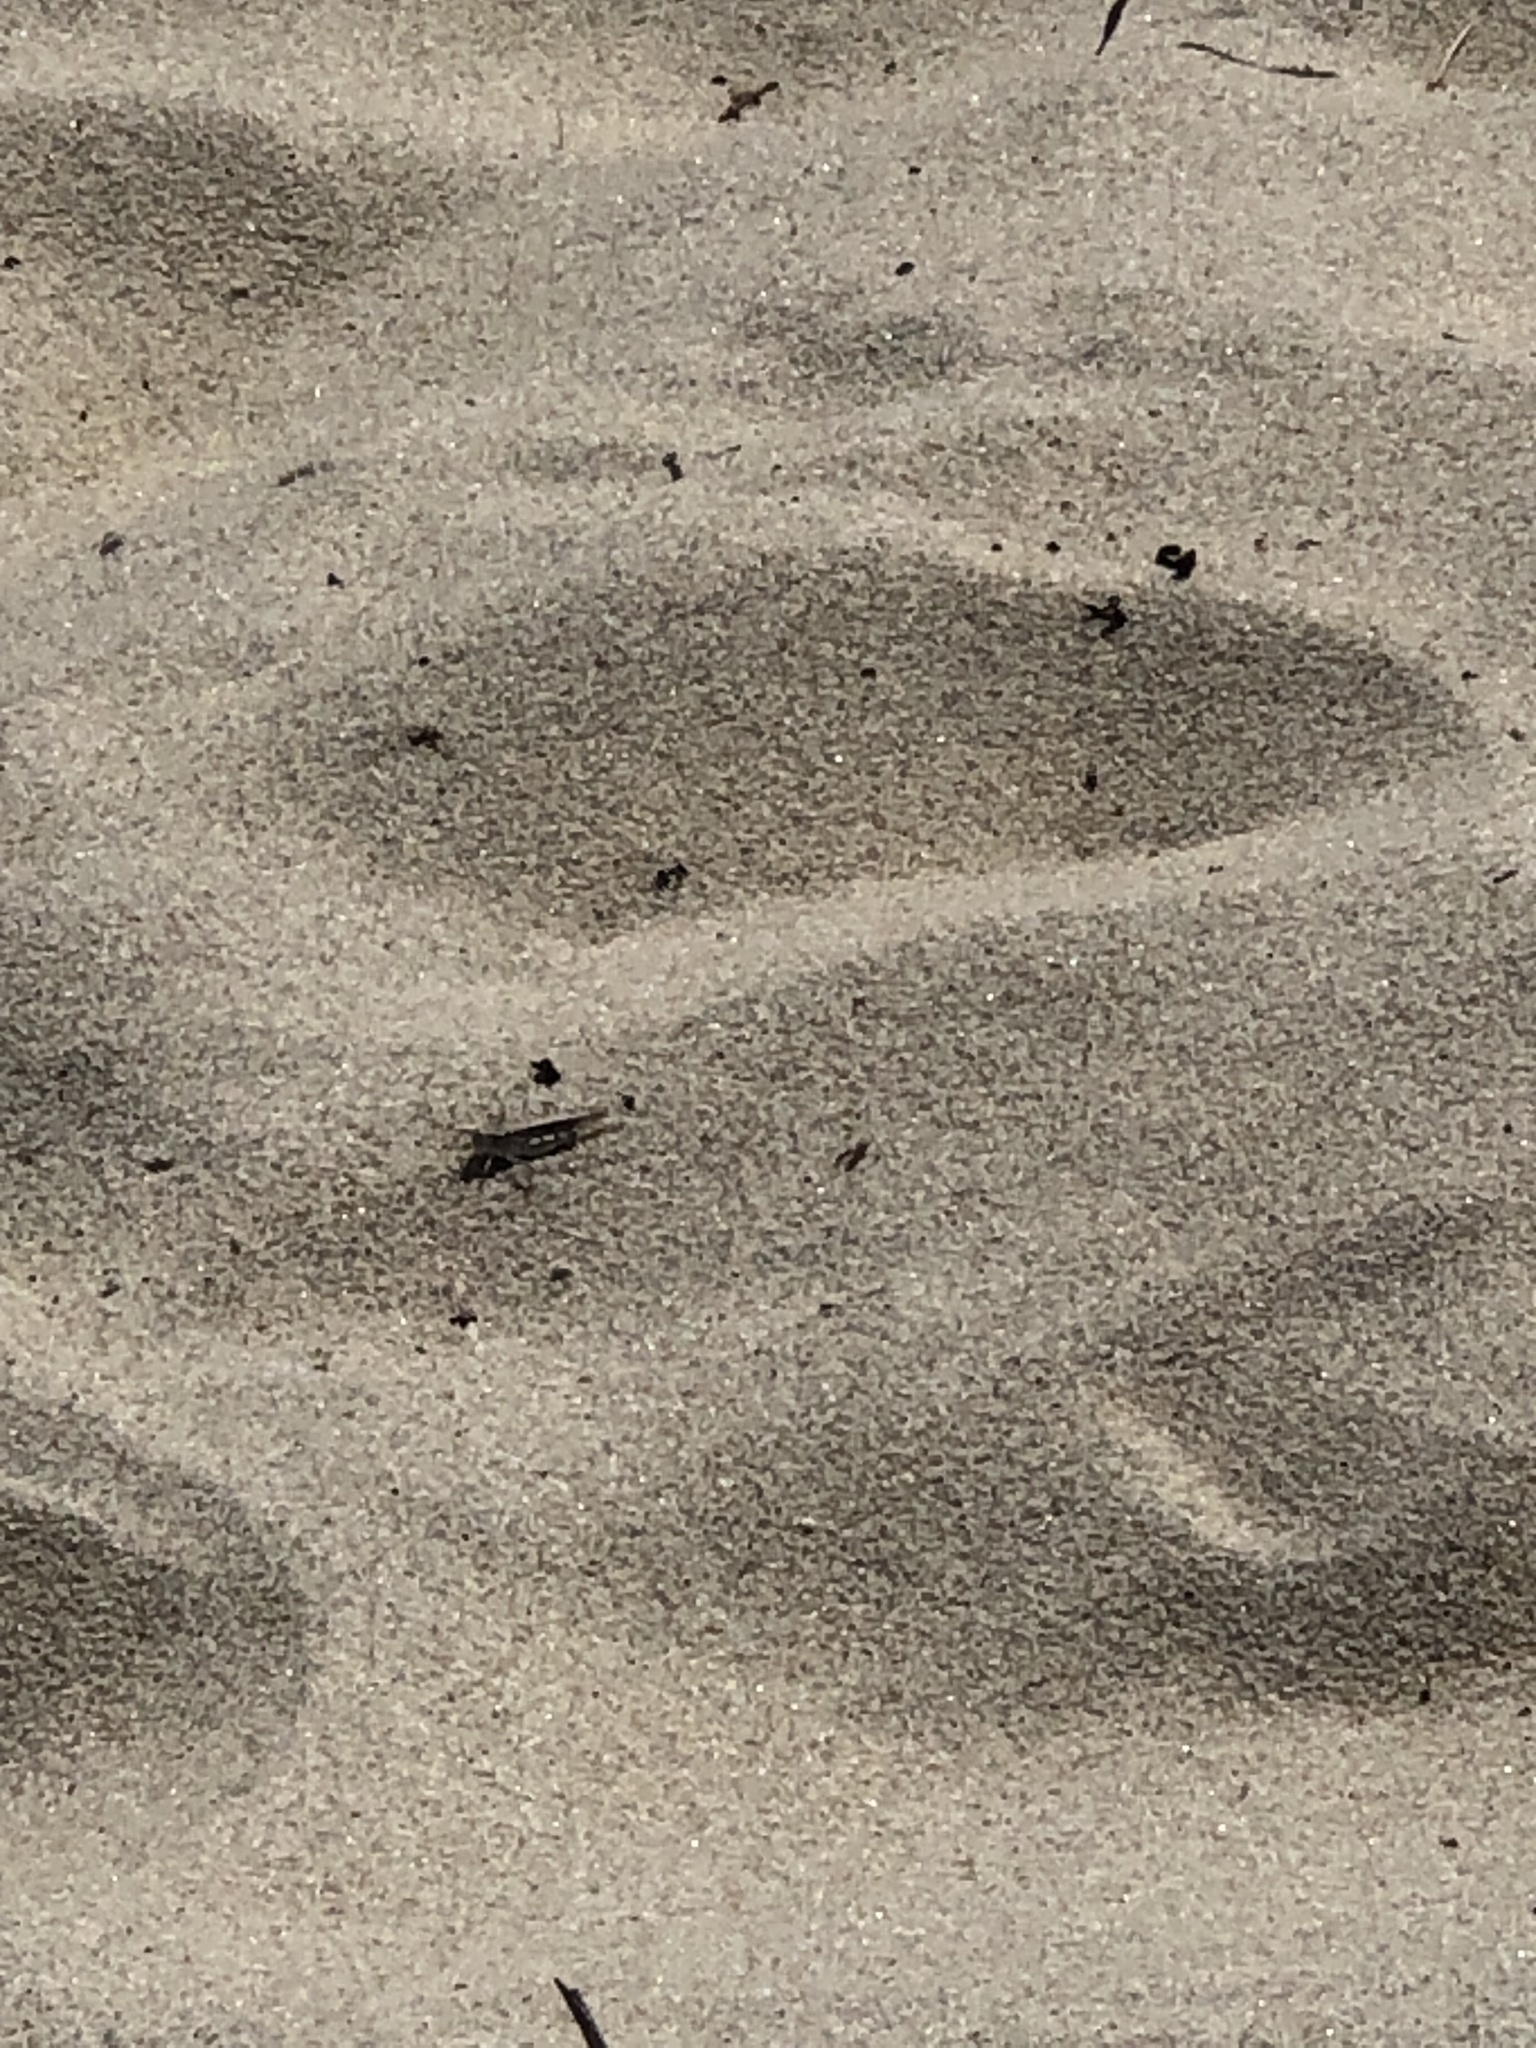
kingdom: Animalia
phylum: Arthropoda
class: Insecta
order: Orthoptera
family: Acrididae
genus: Trimerotropis
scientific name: Trimerotropis maritima
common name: Seaside locust
